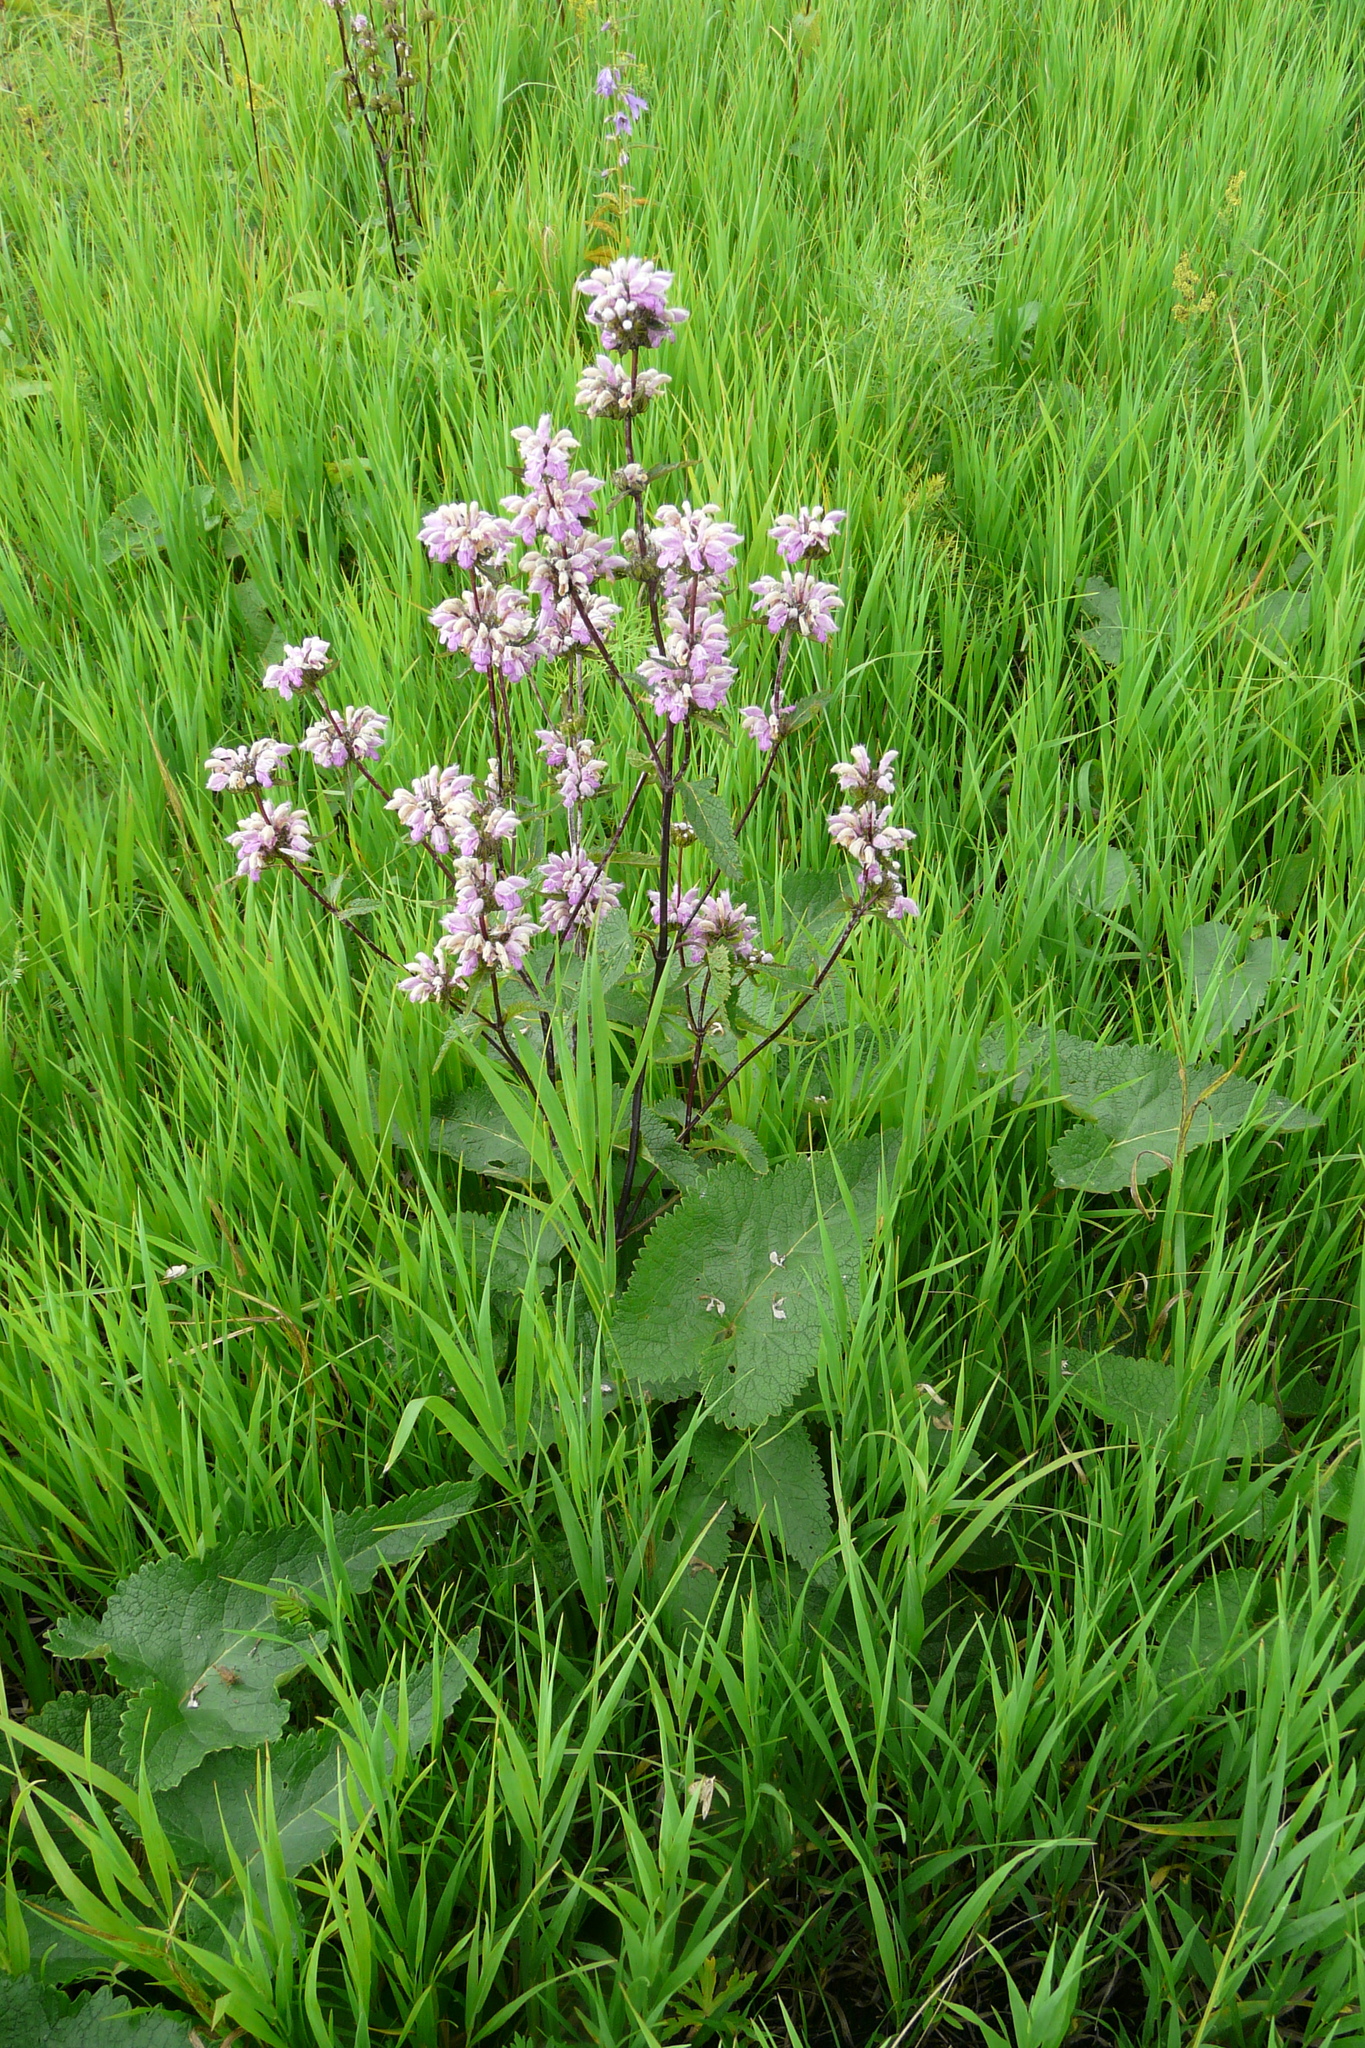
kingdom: Plantae
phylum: Tracheophyta
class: Magnoliopsida
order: Lamiales
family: Lamiaceae
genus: Phlomoides
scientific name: Phlomoides tuberosa
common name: Tuberous jerusalem sage
